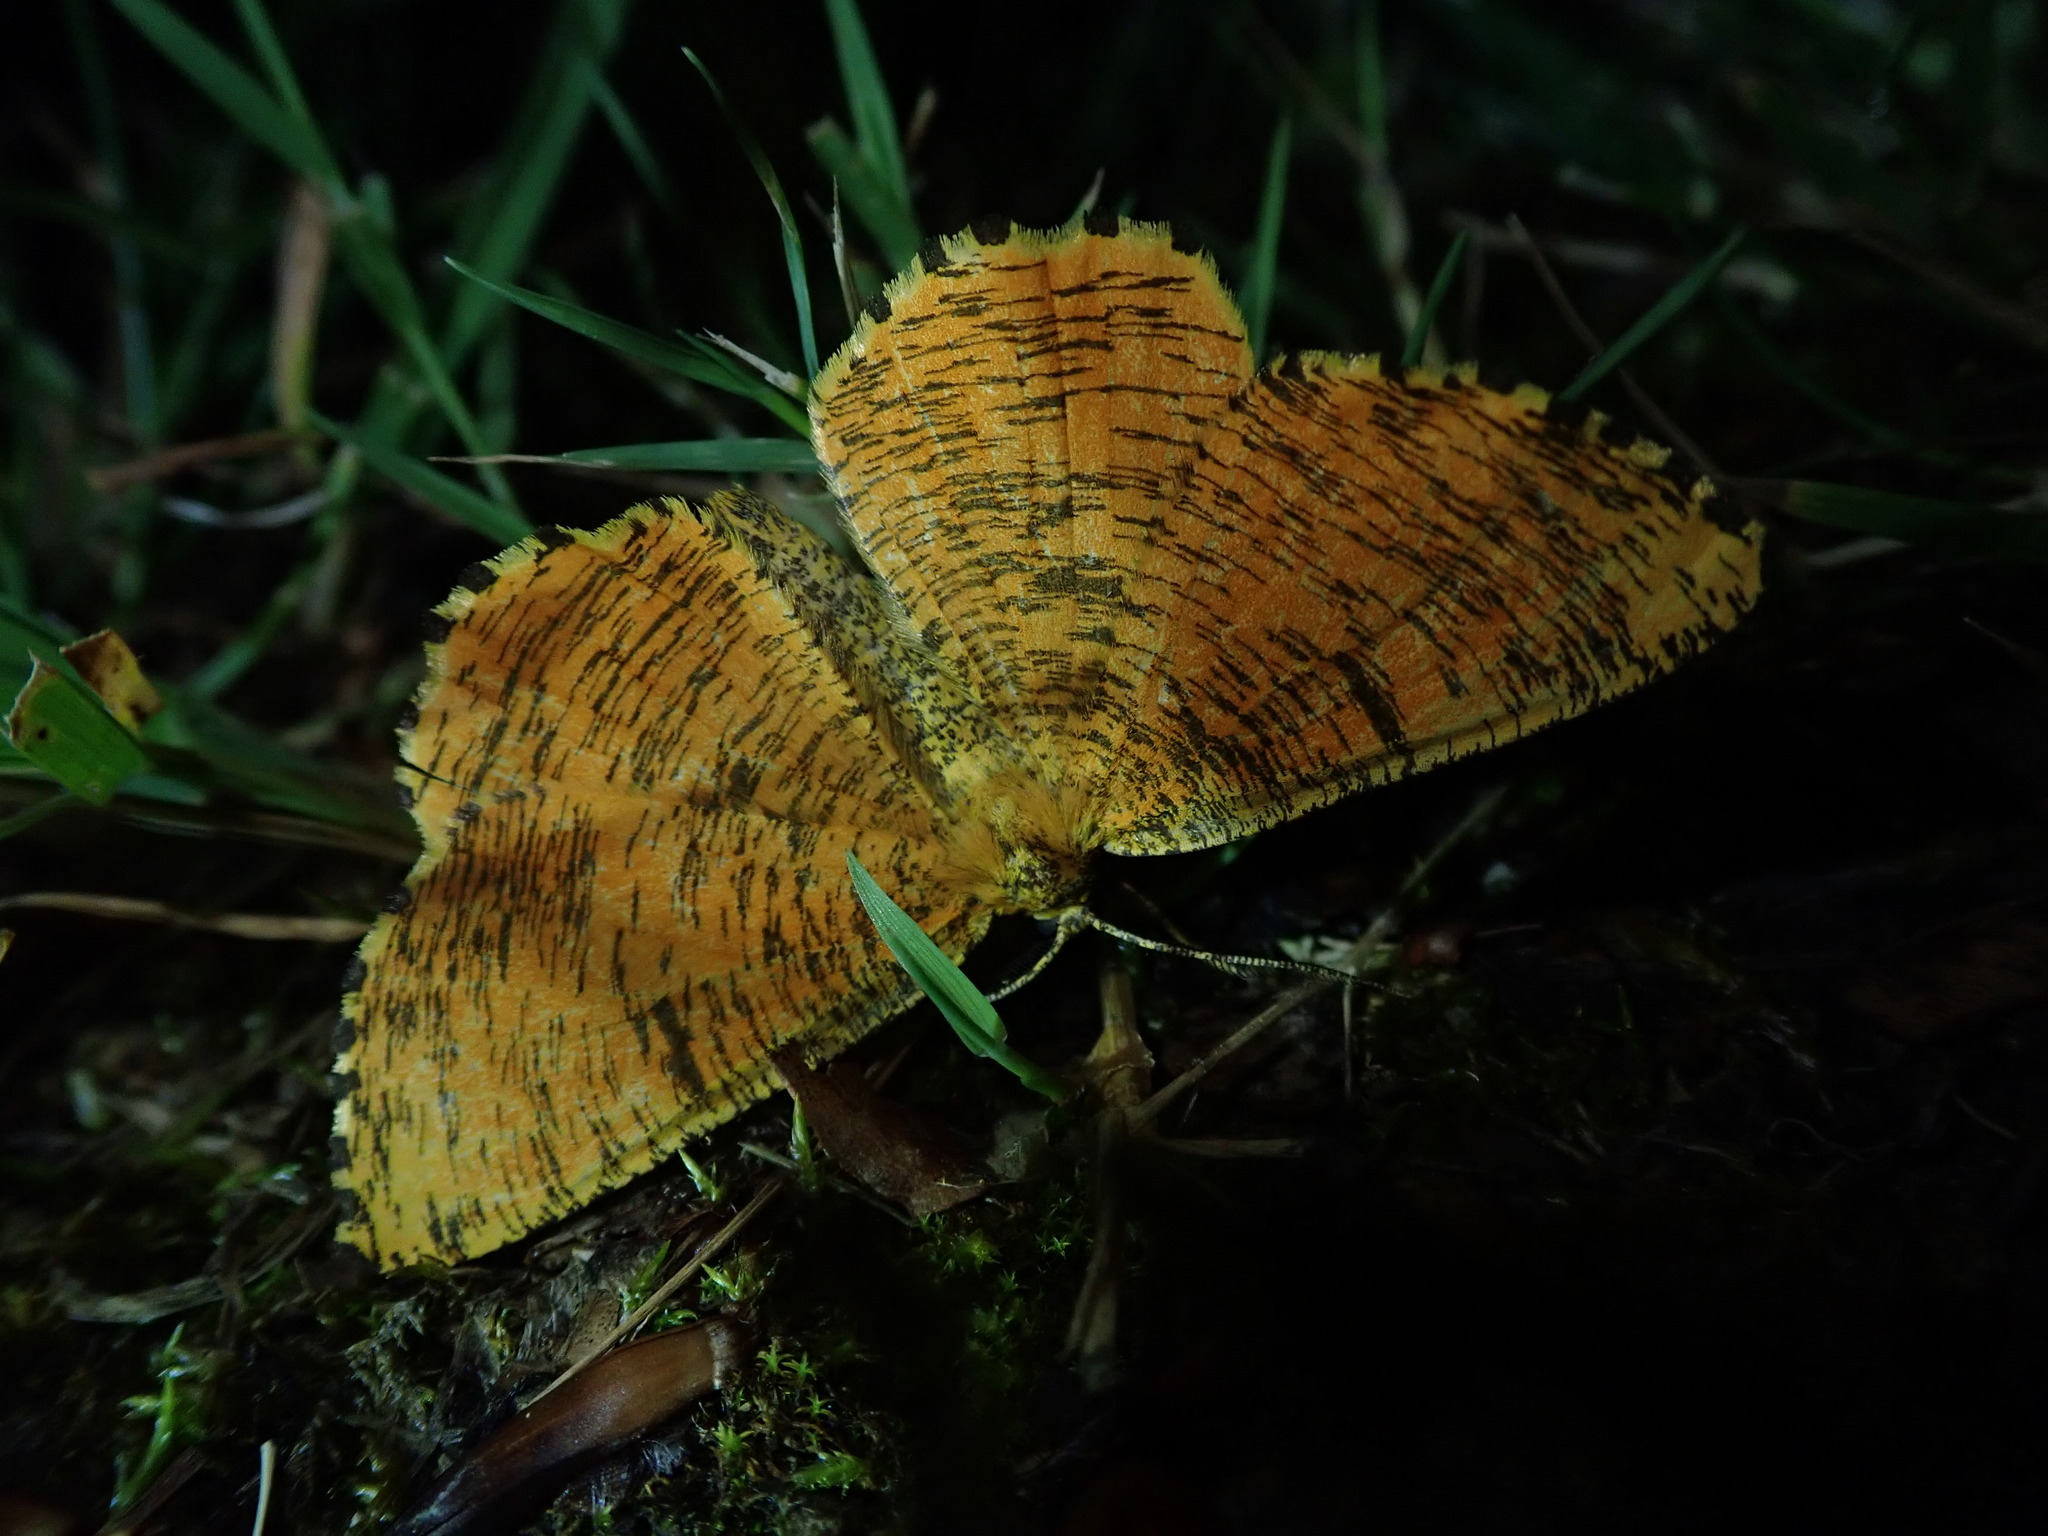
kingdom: Animalia
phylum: Arthropoda
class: Insecta
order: Lepidoptera
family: Geometridae
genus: Angerona
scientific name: Angerona prunaria
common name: Orange moth
